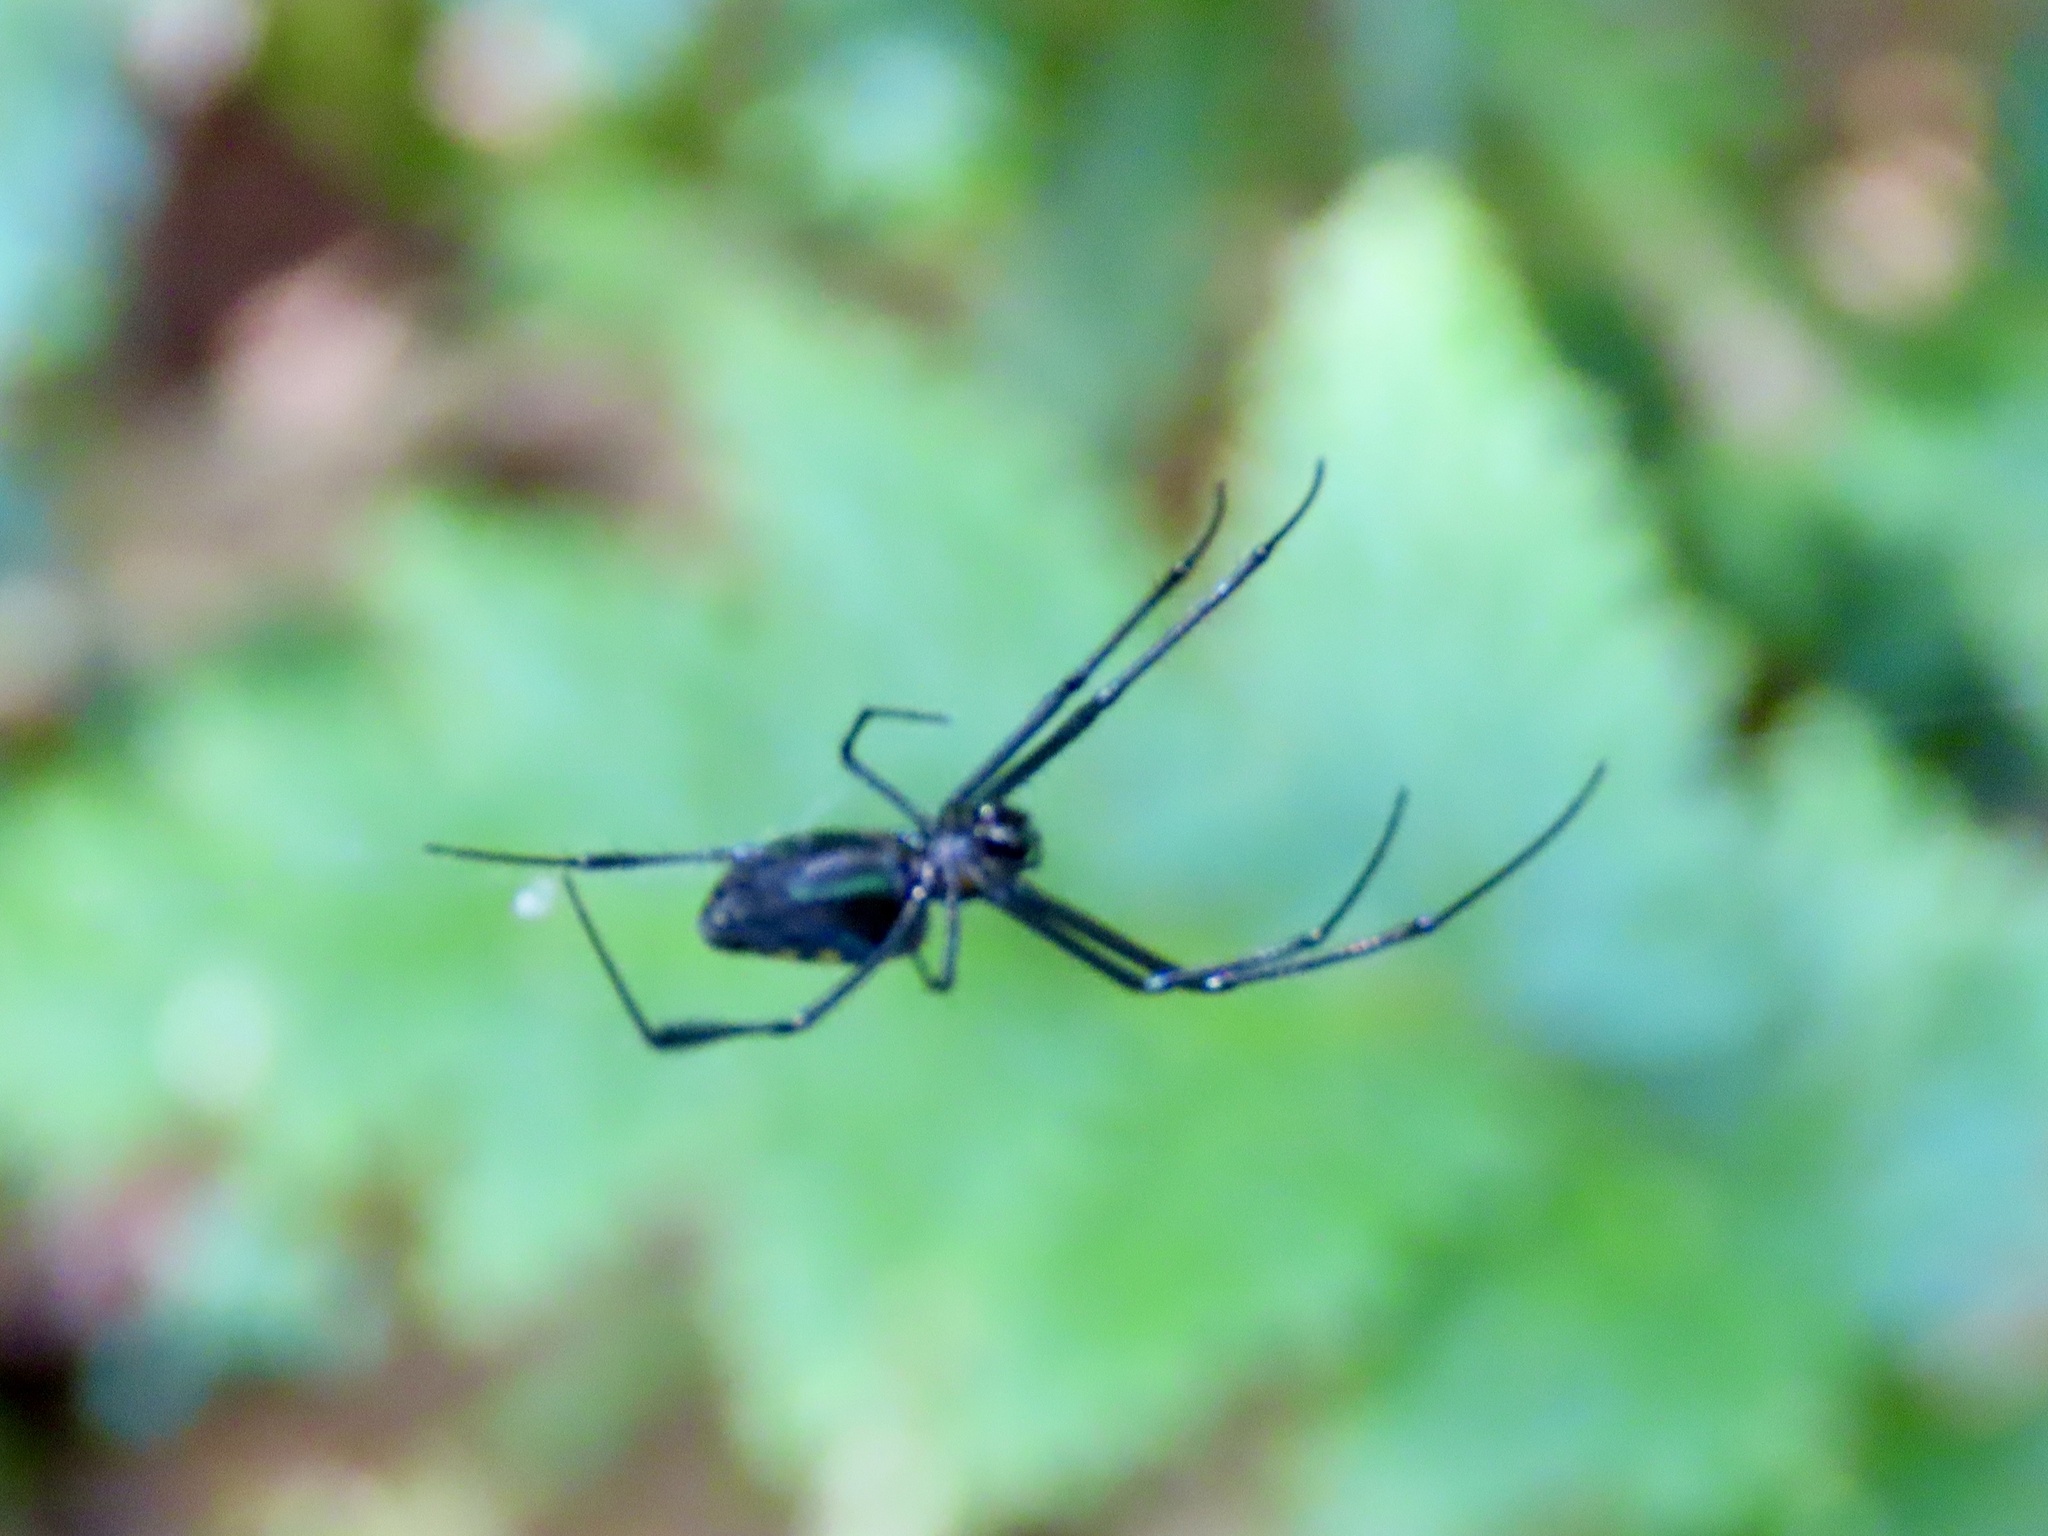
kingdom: Animalia
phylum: Arthropoda
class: Arachnida
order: Araneae
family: Tetragnathidae
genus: Leucauge
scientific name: Leucauge tessellata
